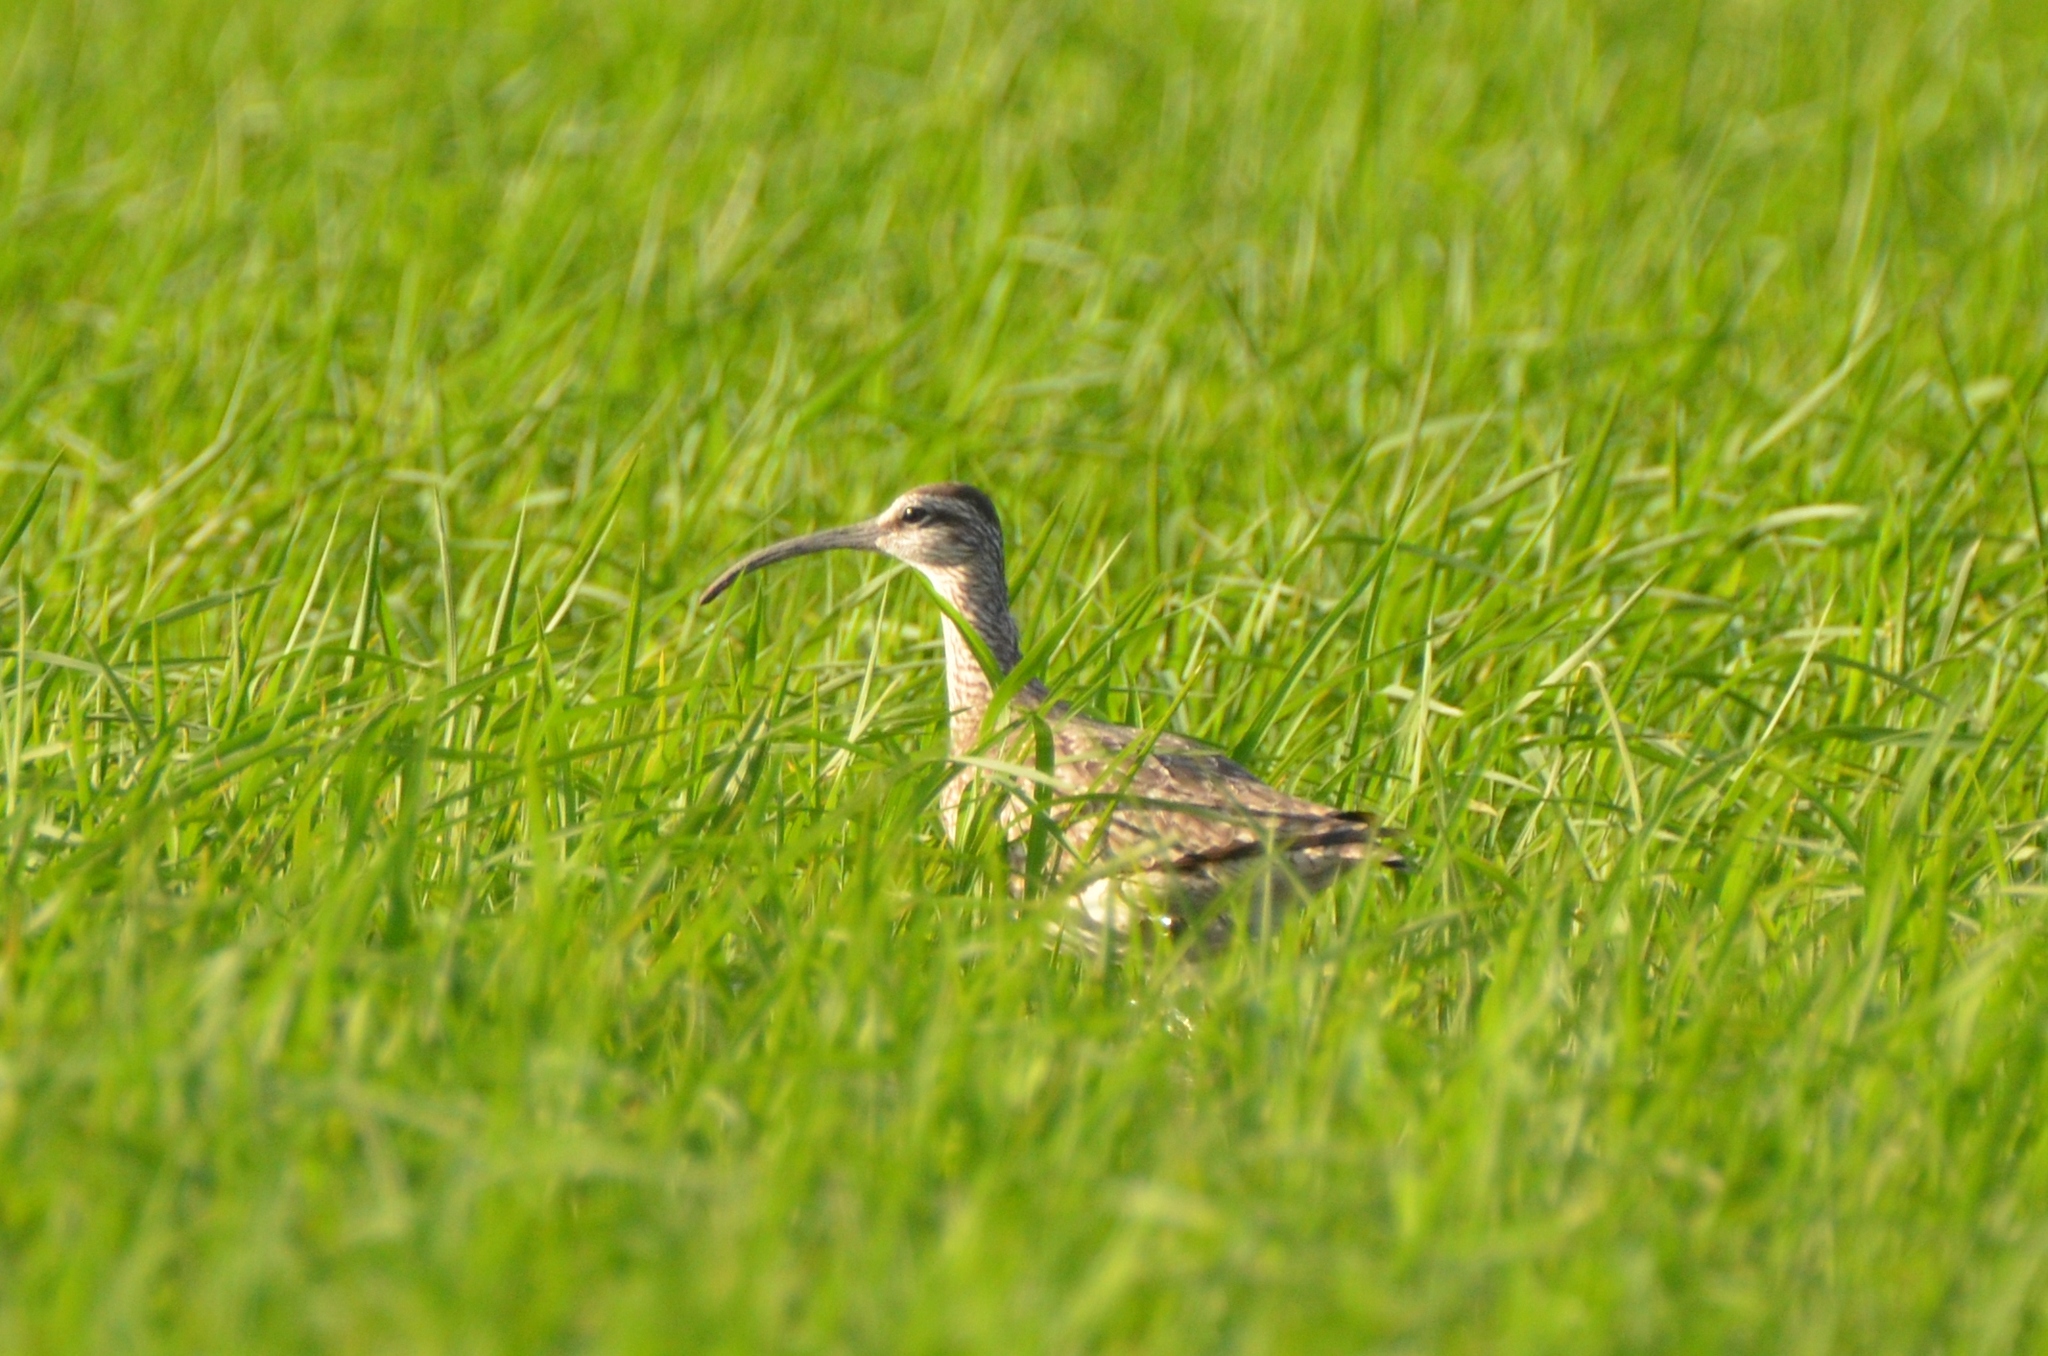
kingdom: Animalia
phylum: Chordata
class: Aves
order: Charadriiformes
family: Scolopacidae
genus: Numenius
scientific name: Numenius phaeopus
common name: Whimbrel
